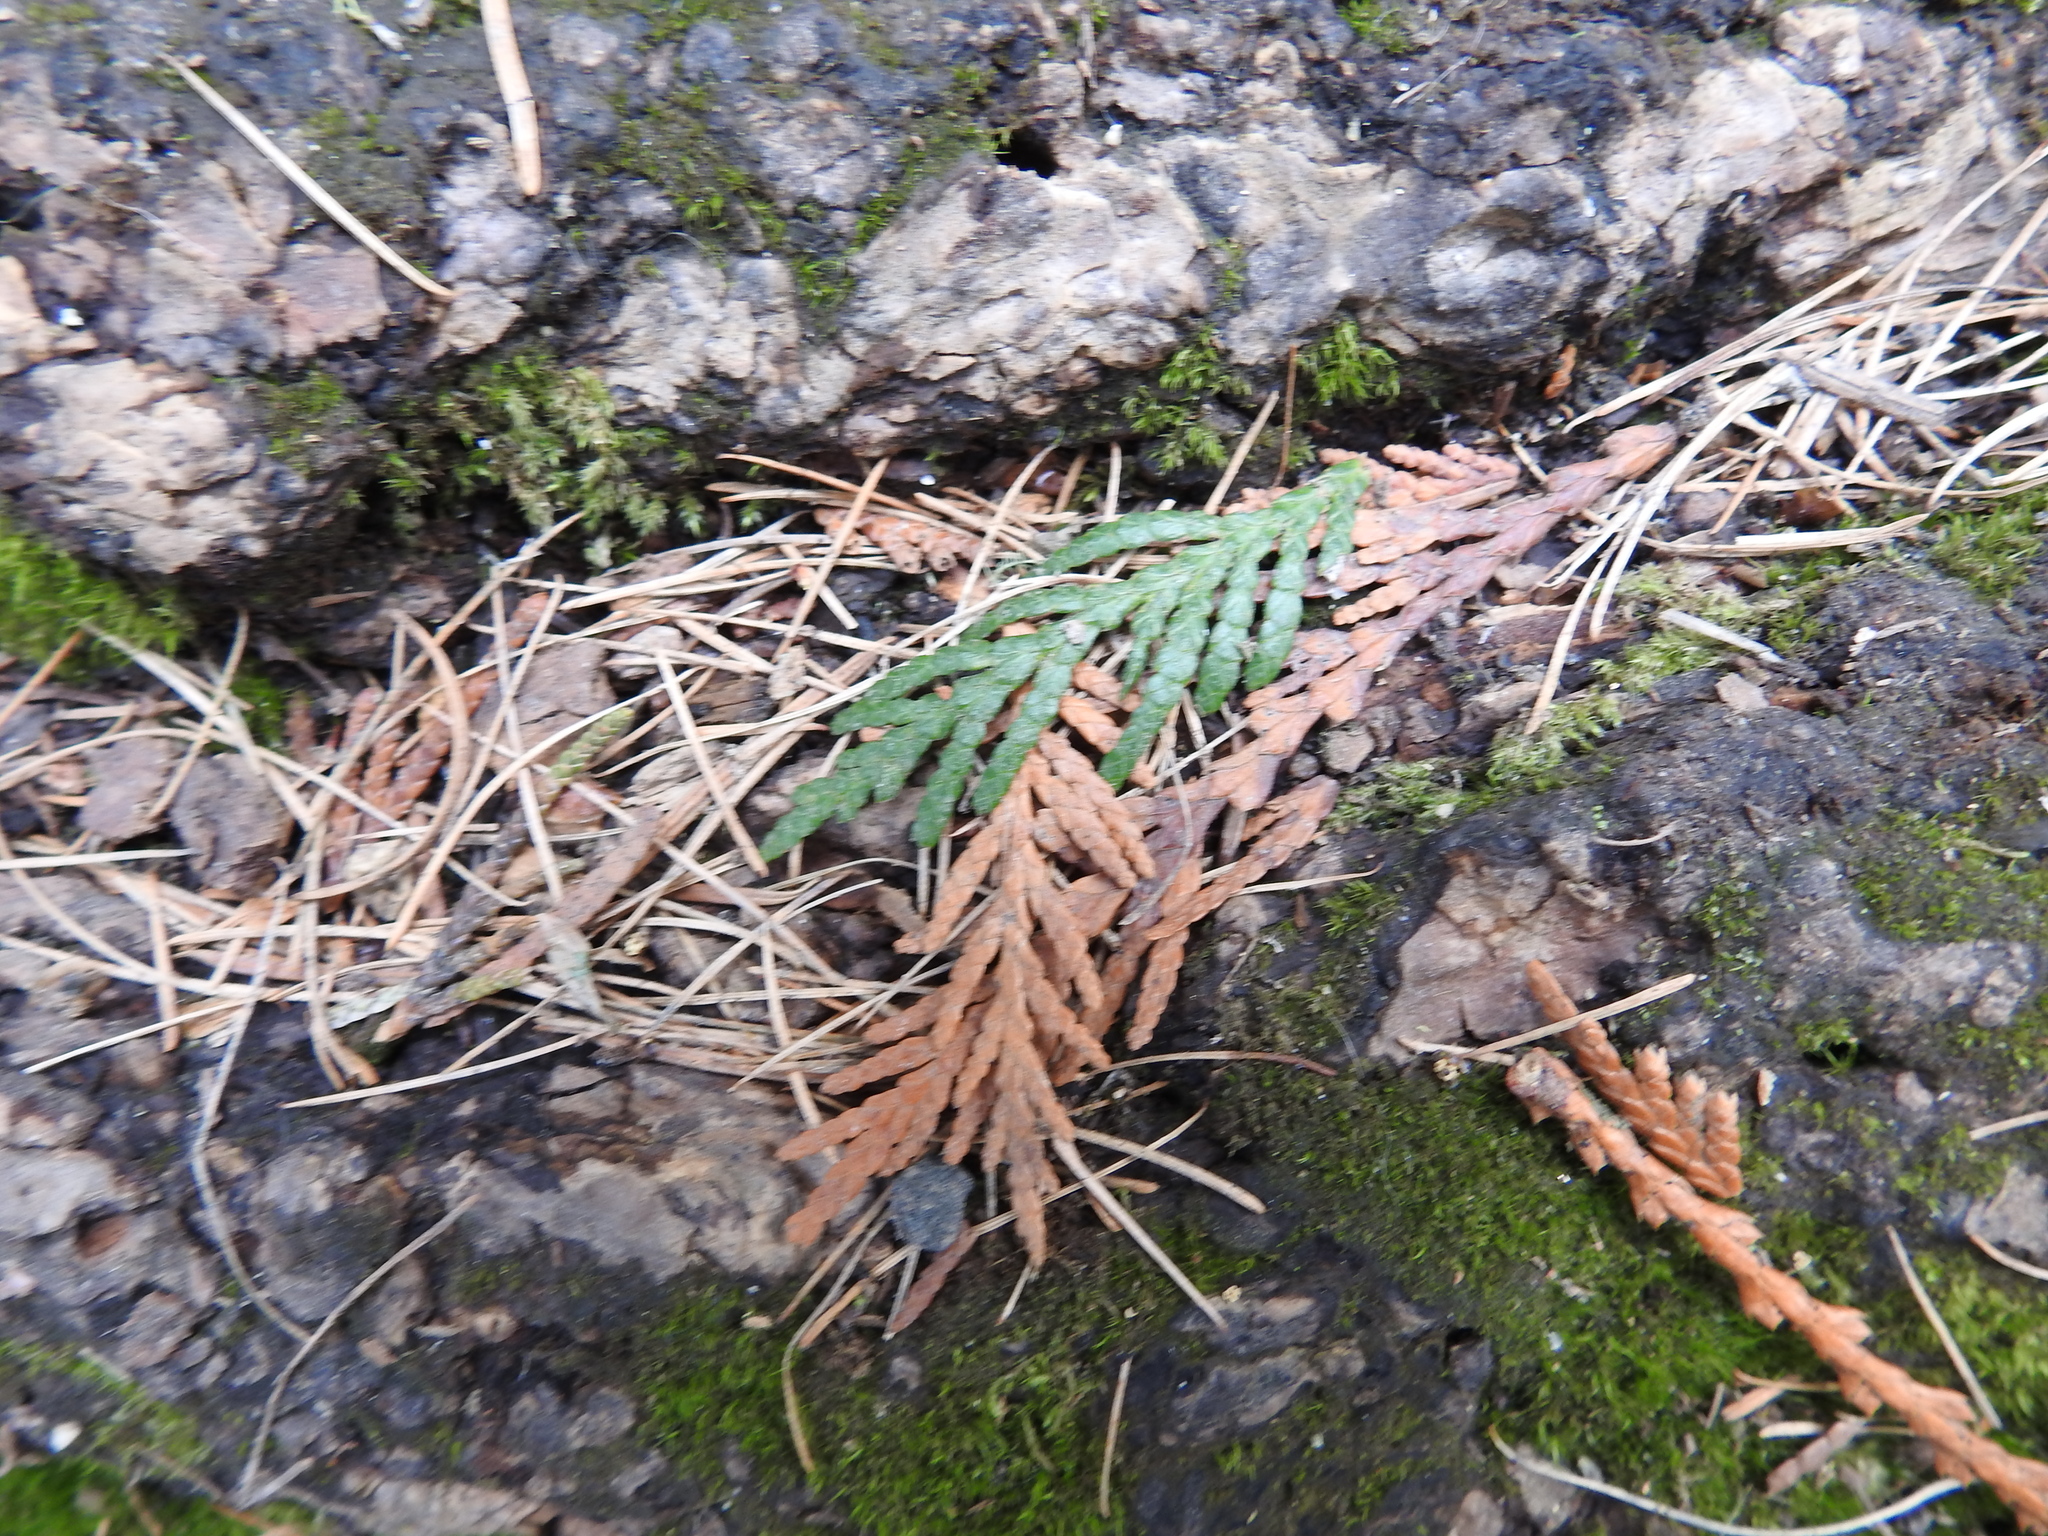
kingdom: Plantae
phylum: Tracheophyta
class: Pinopsida
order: Pinales
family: Cupressaceae
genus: Thuja
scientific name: Thuja plicata
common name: Western red-cedar
